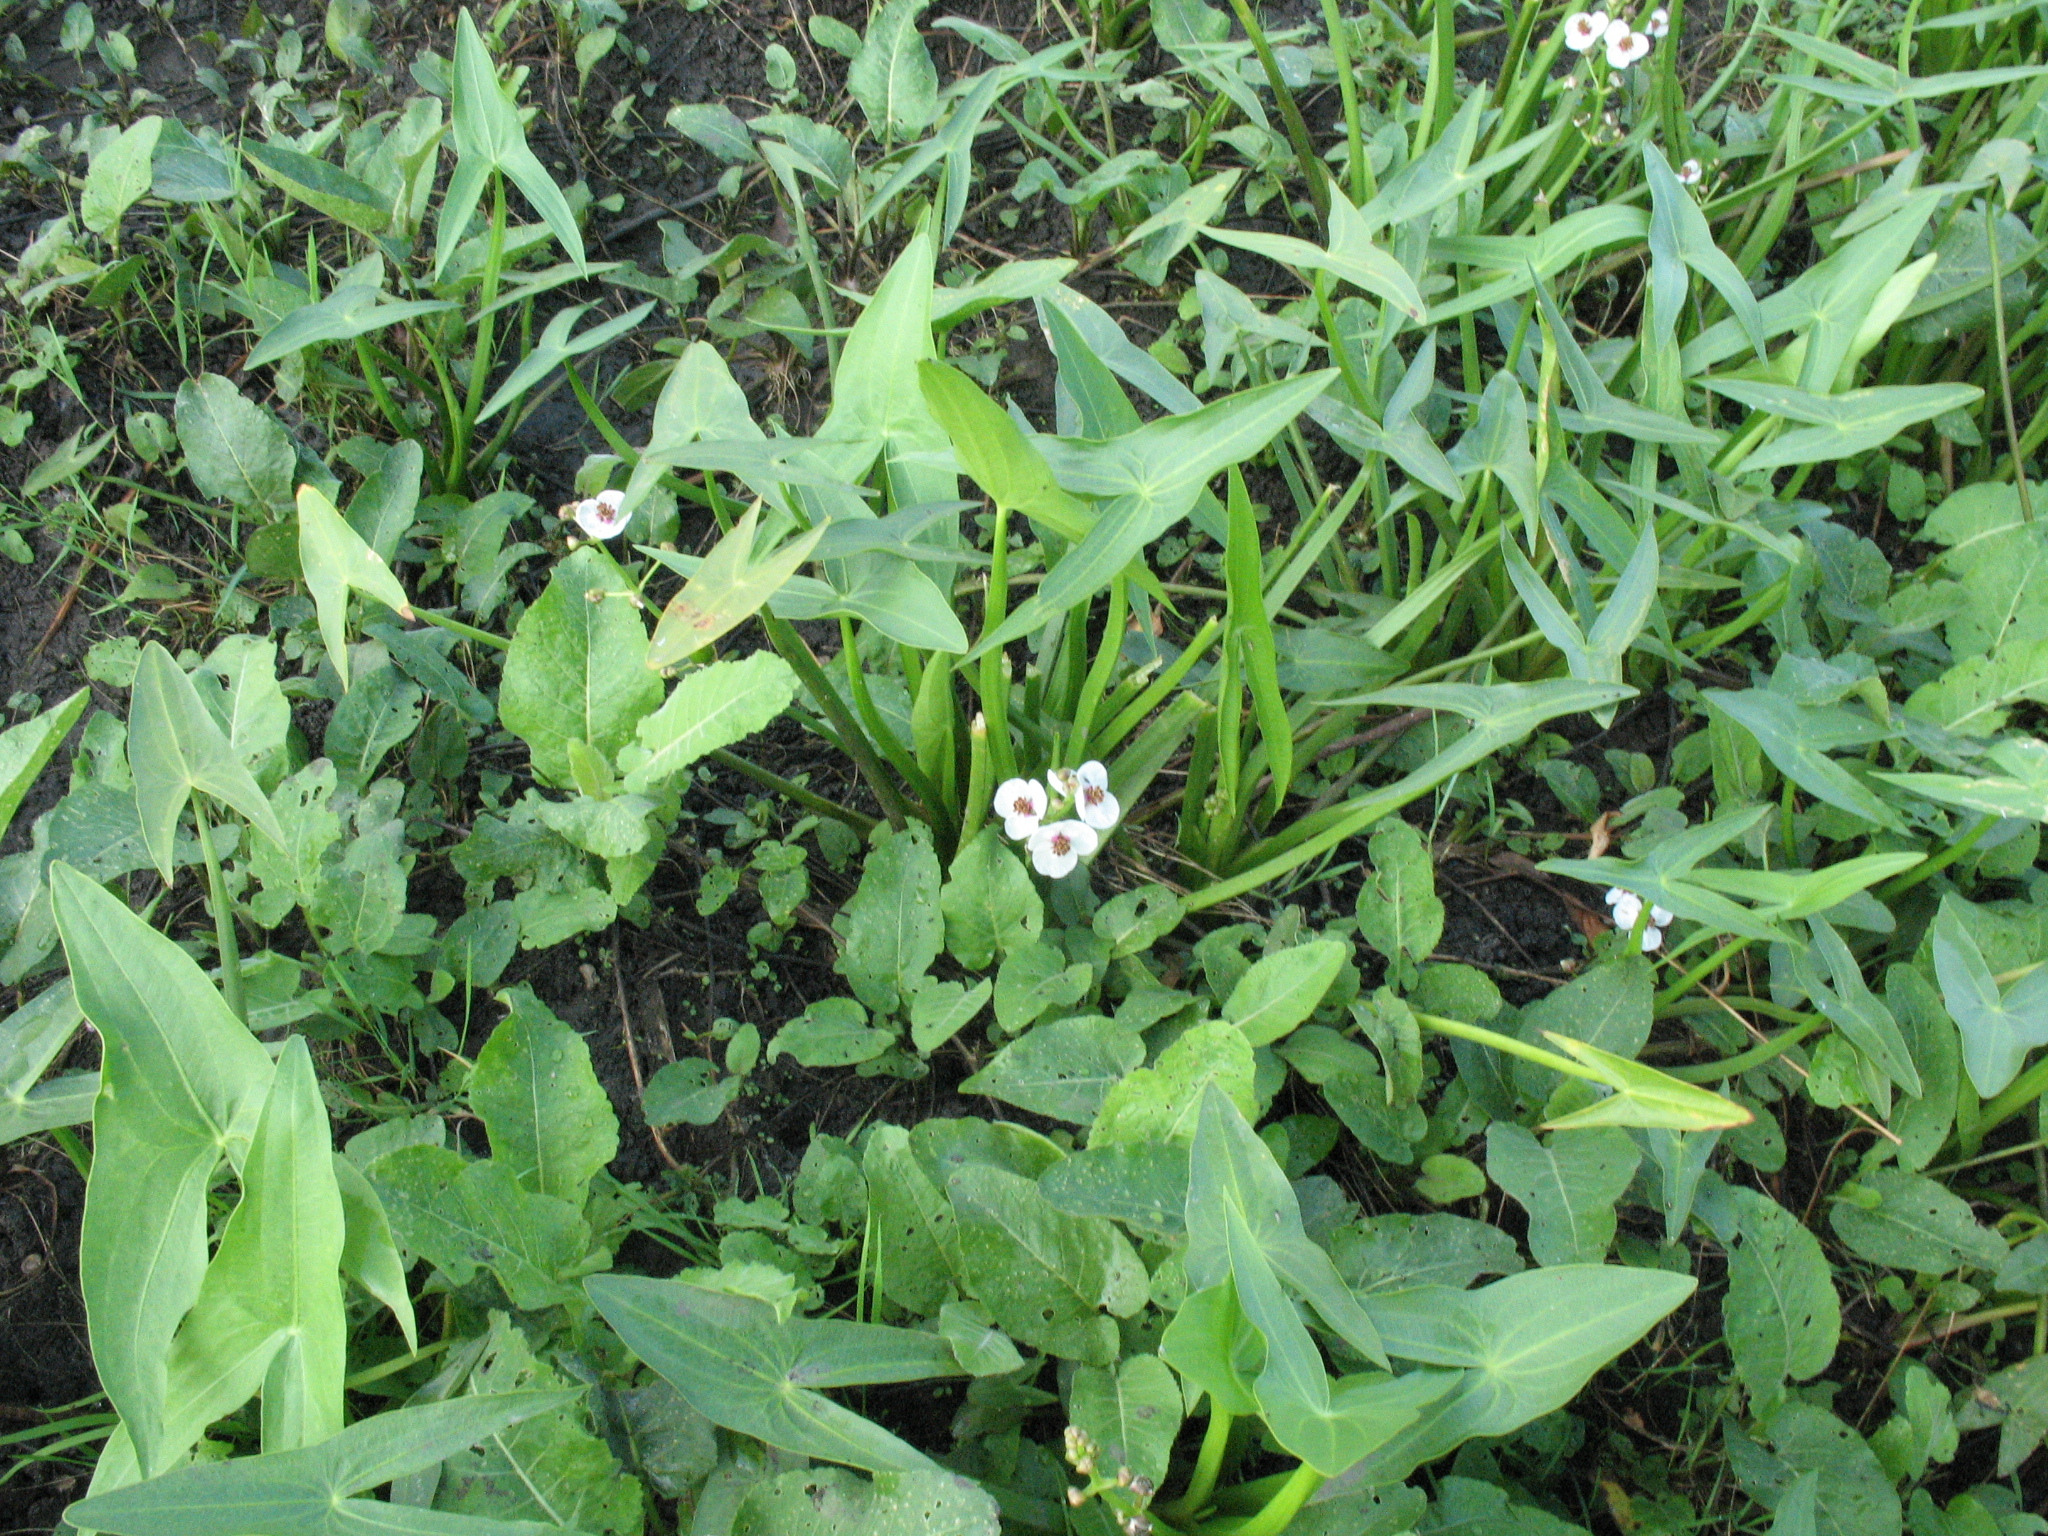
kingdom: Plantae
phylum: Tracheophyta
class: Liliopsida
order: Alismatales
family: Alismataceae
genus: Sagittaria
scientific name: Sagittaria sagittifolia
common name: Arrowhead
